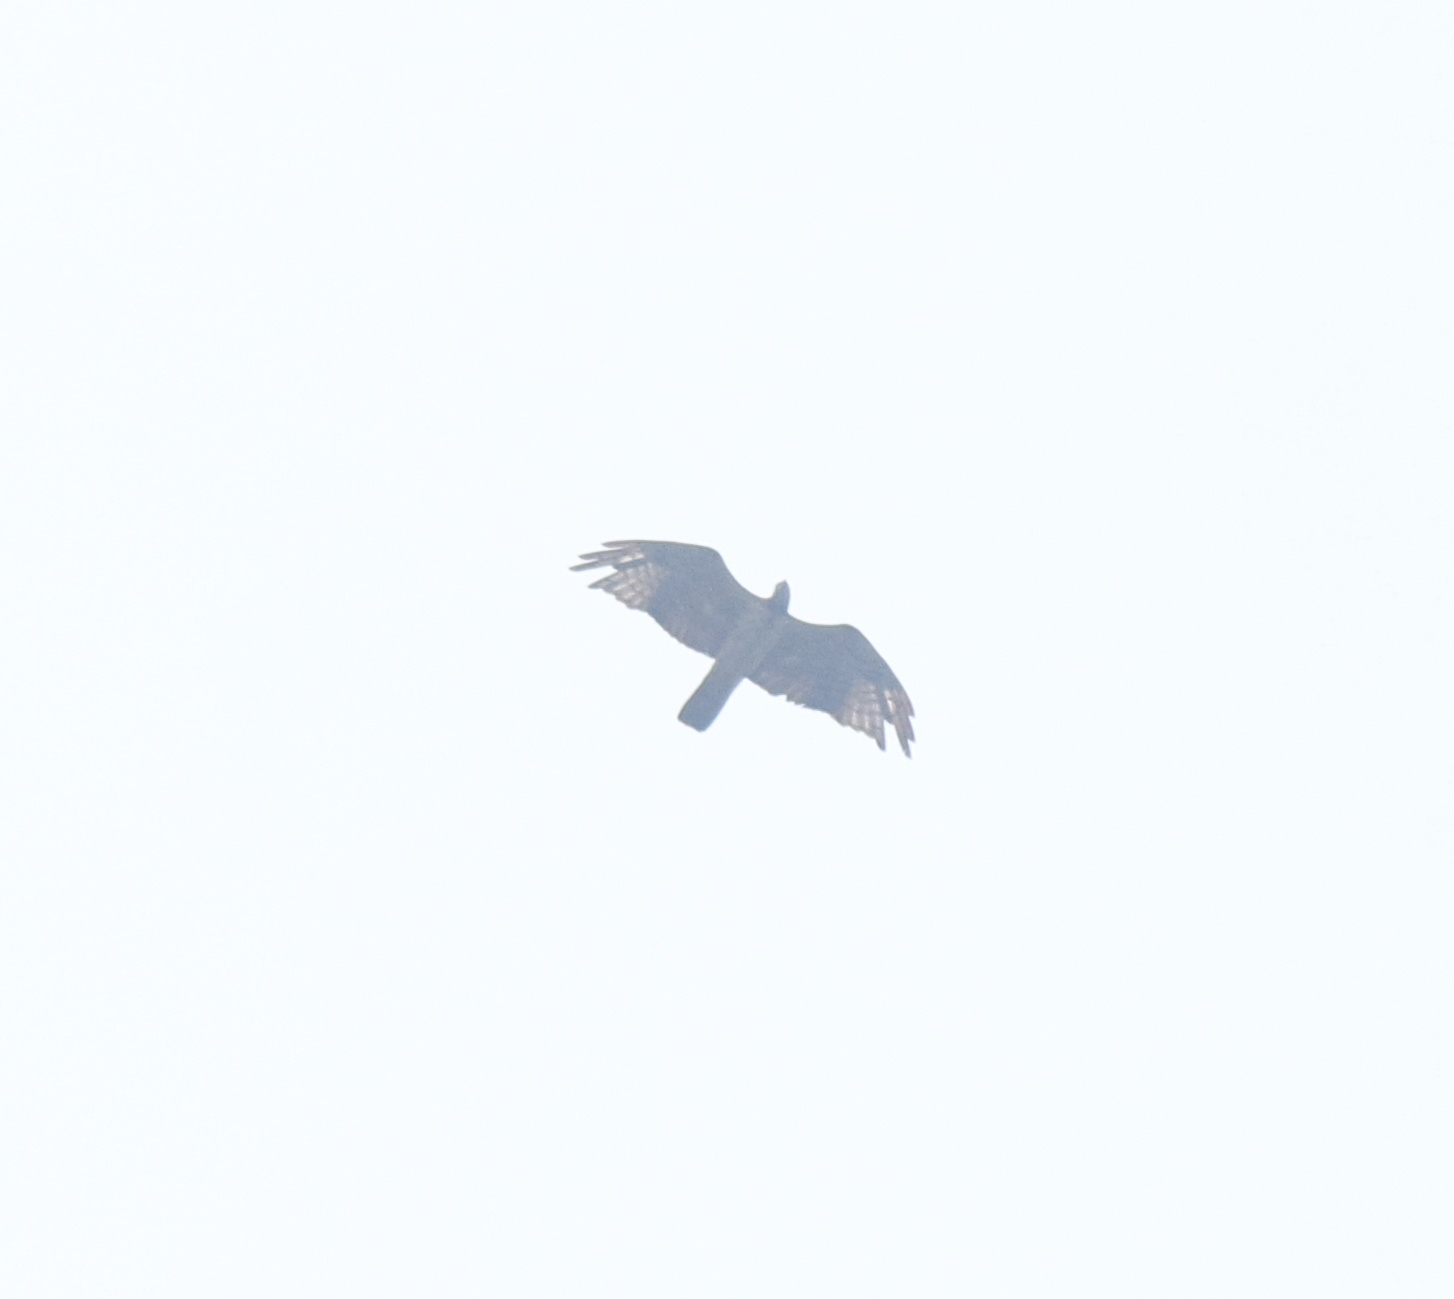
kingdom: Animalia
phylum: Chordata
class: Aves
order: Accipitriformes
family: Accipitridae
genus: Pernis
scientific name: Pernis ptilorhynchus
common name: Crested honey buzzard
